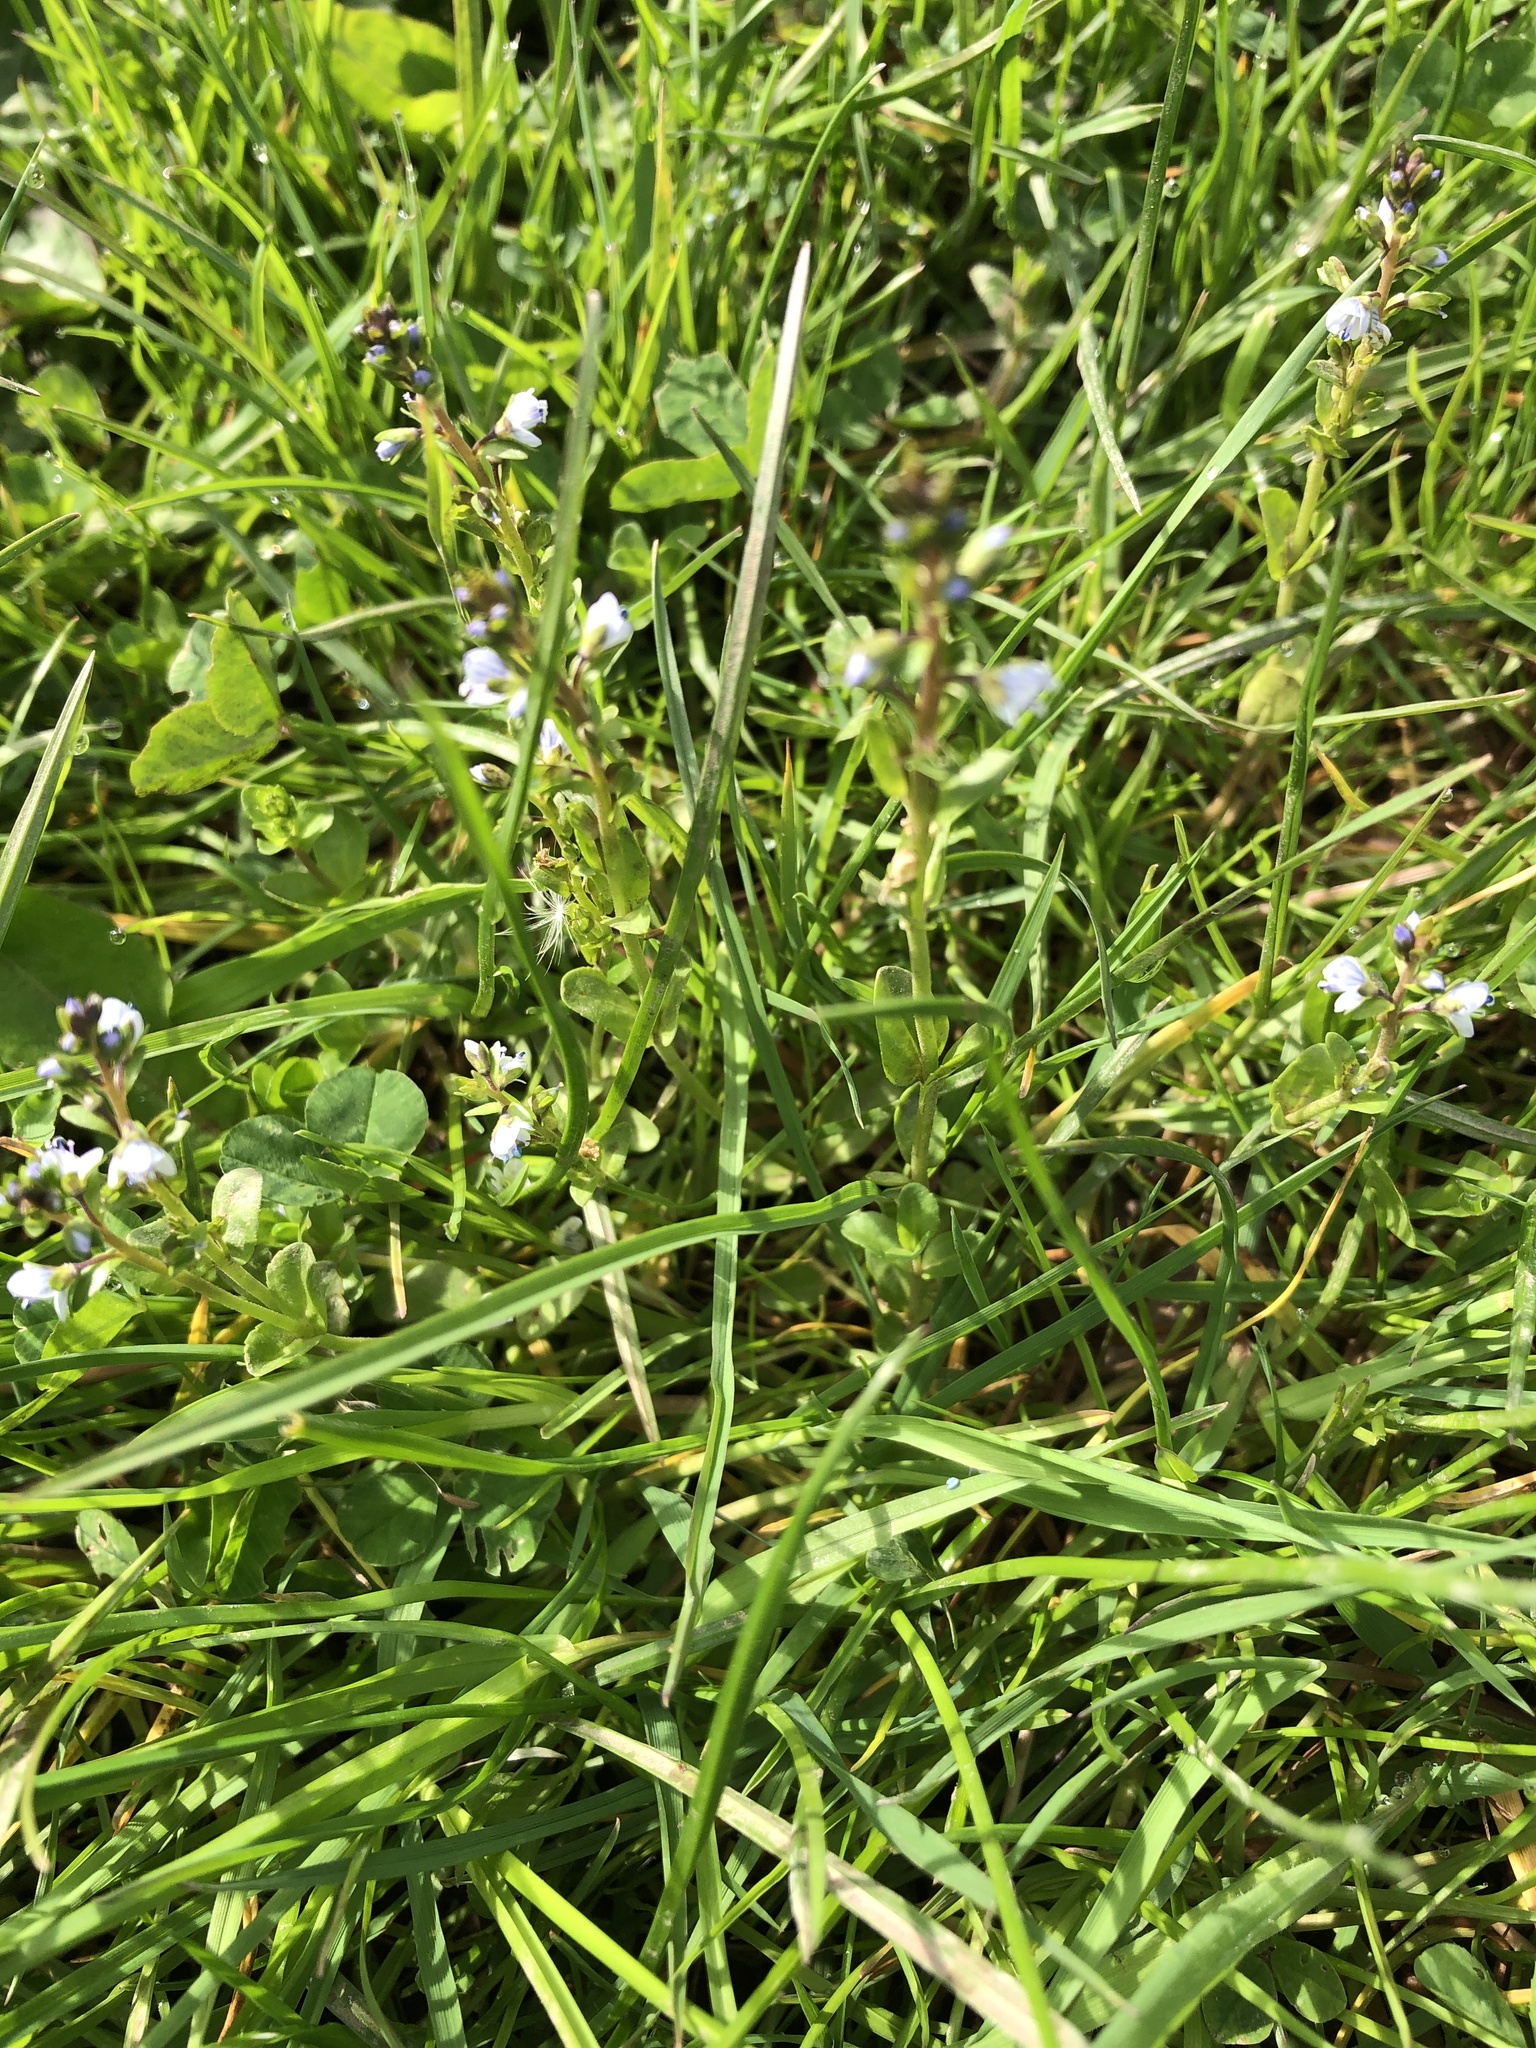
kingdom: Plantae
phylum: Tracheophyta
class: Magnoliopsida
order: Lamiales
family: Plantaginaceae
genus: Veronica
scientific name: Veronica serpyllifolia
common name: Thyme-leaved speedwell
